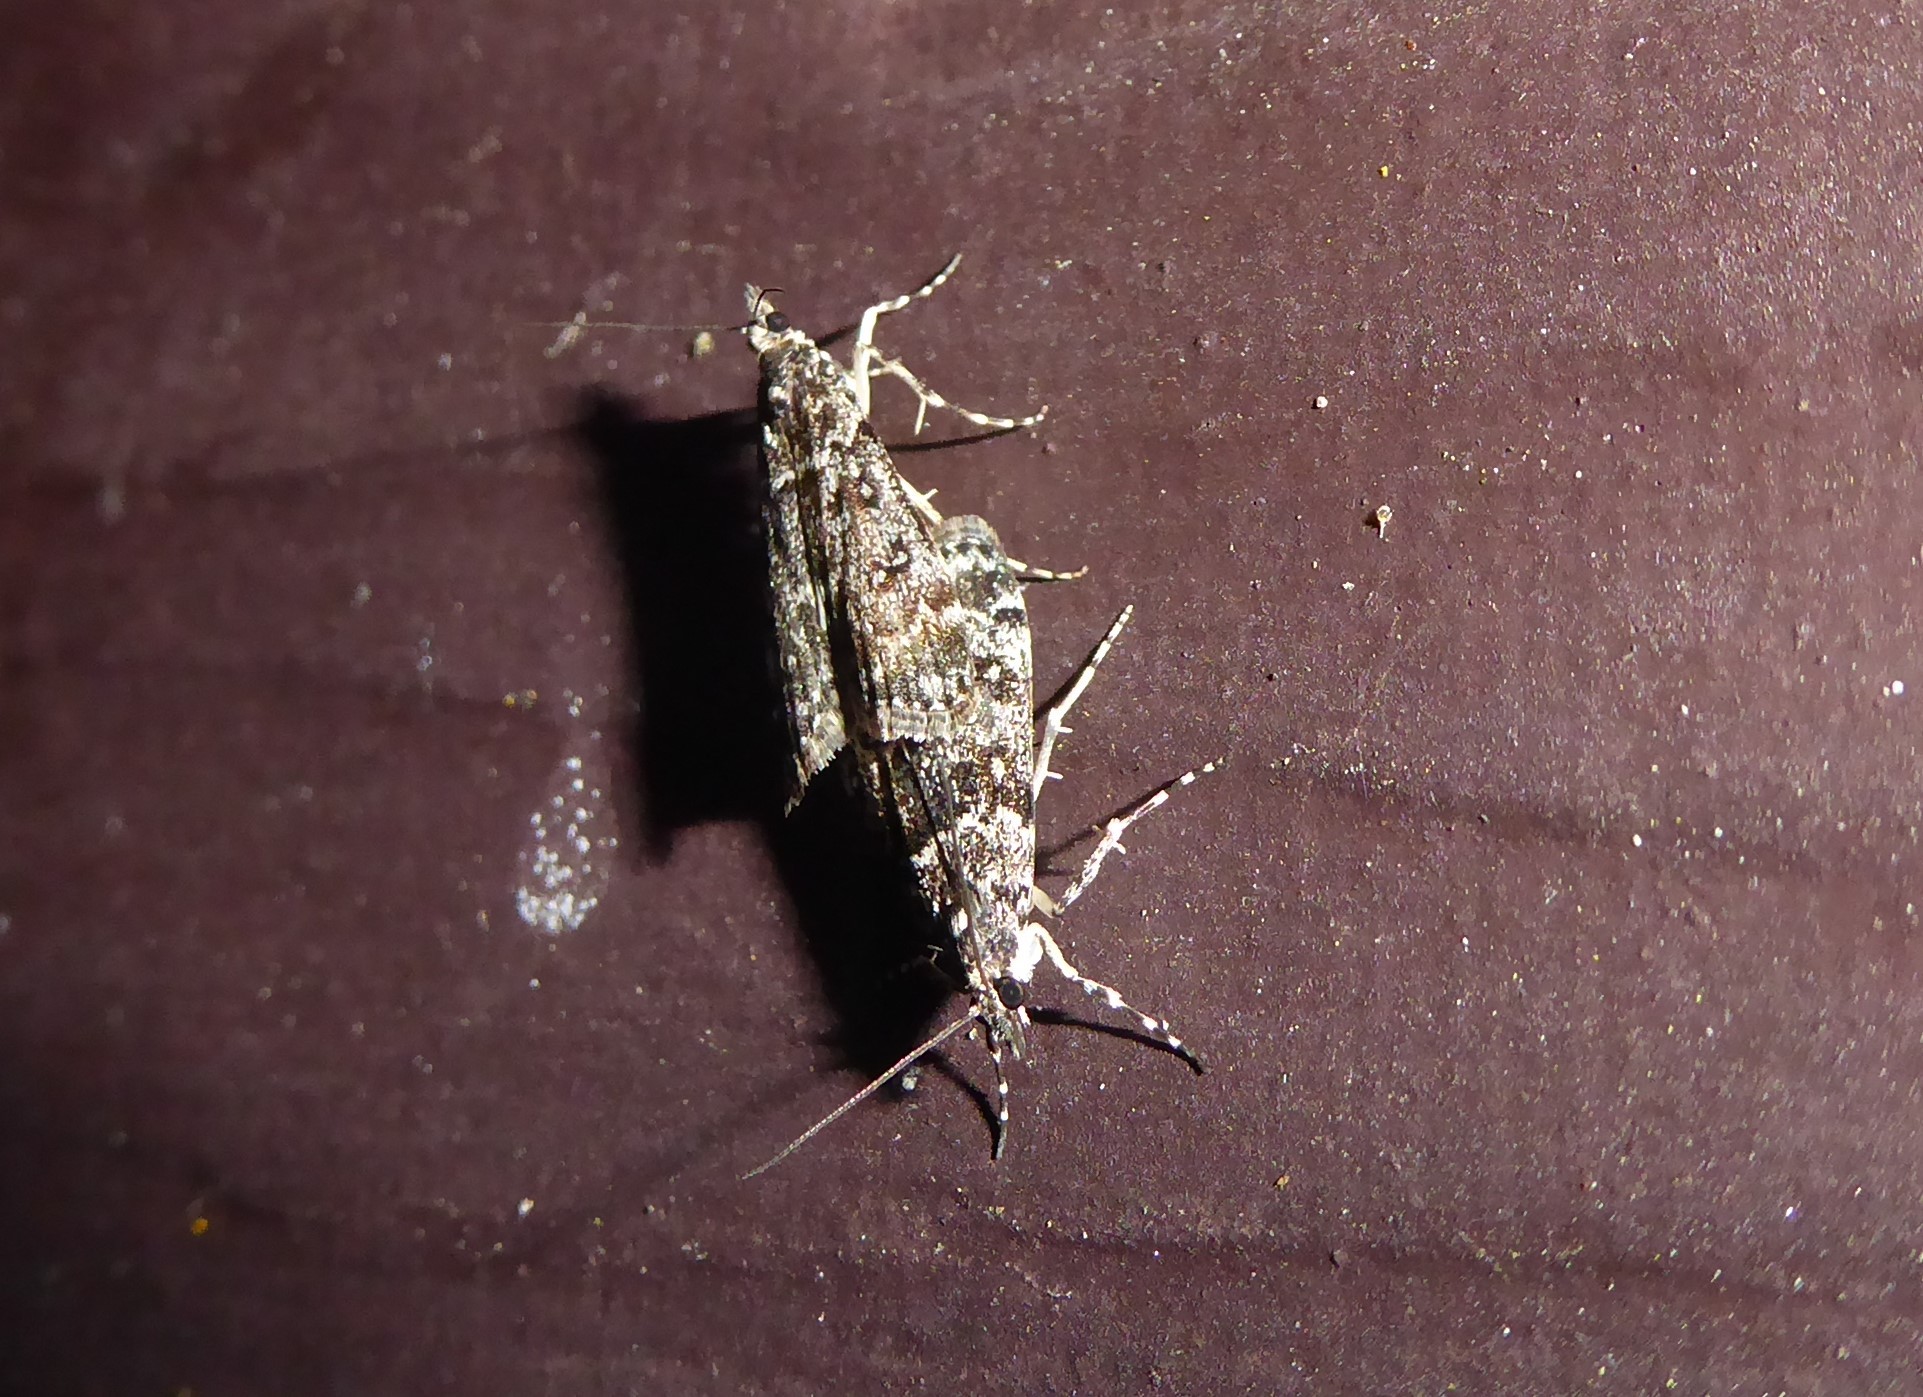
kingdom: Animalia
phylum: Arthropoda
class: Insecta
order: Lepidoptera
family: Crambidae
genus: Eudonia
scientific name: Eudonia philerga
